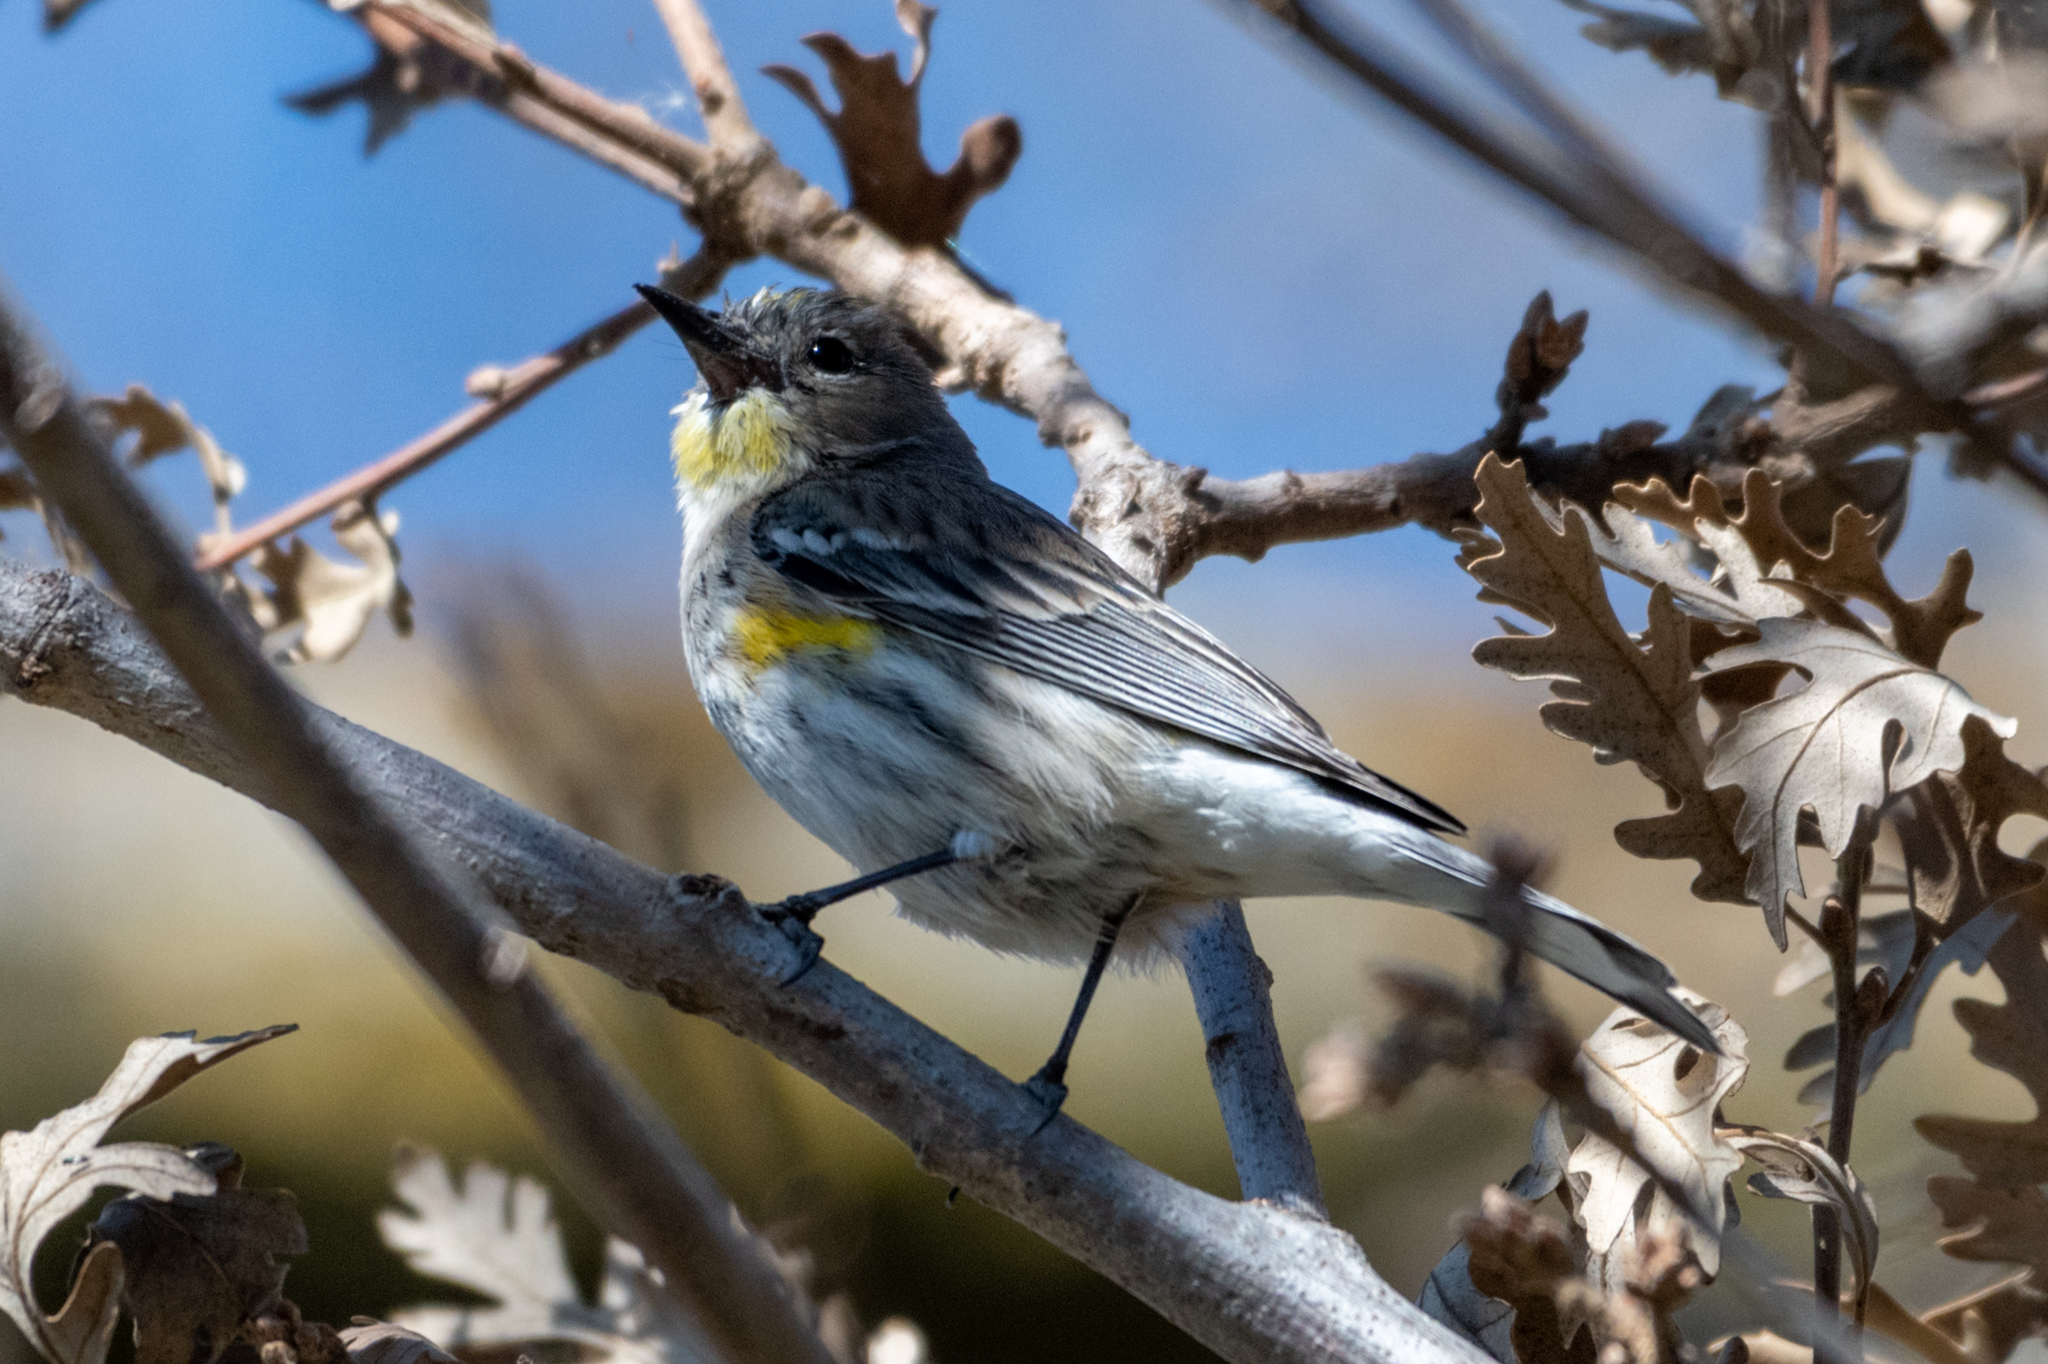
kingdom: Animalia
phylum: Chordata
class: Aves
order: Passeriformes
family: Parulidae
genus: Setophaga
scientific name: Setophaga coronata
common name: Myrtle warbler
